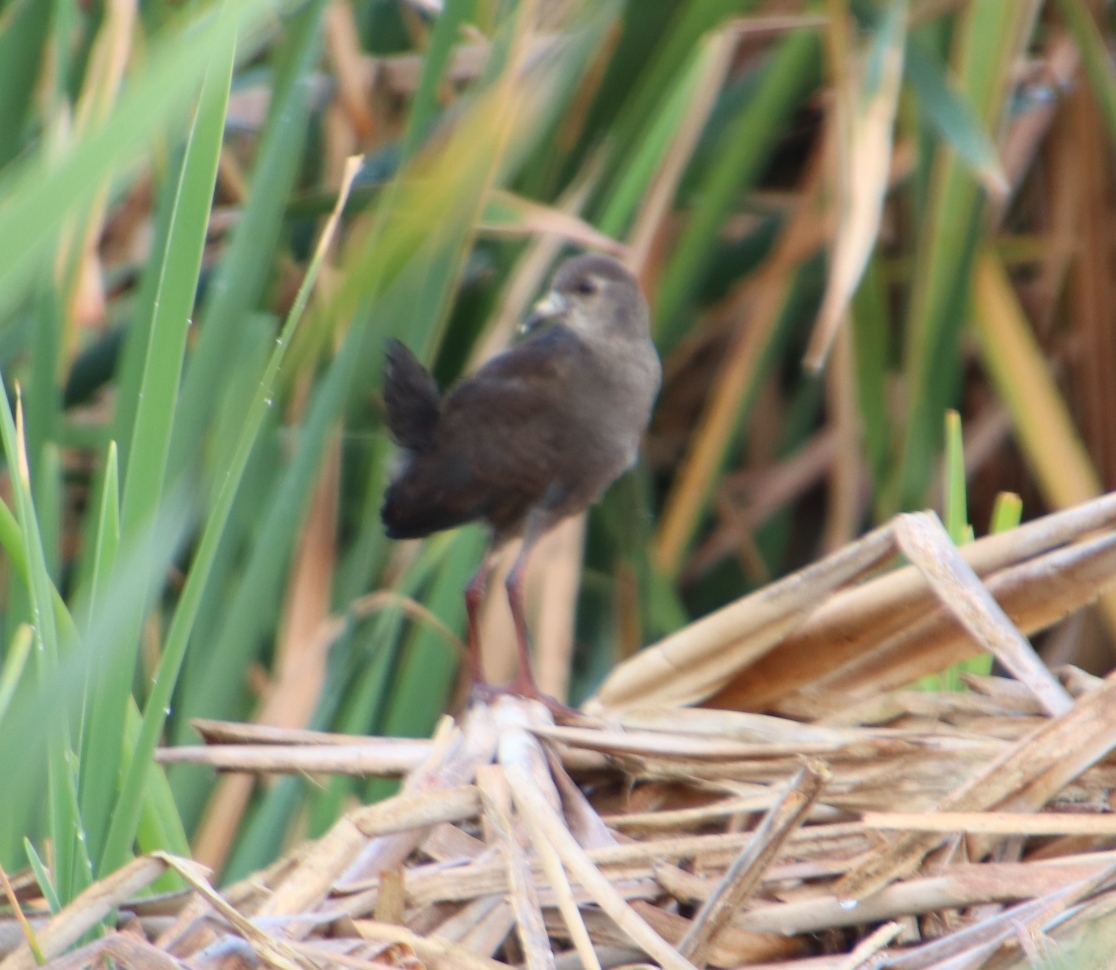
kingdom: Animalia
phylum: Chordata
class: Aves
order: Gruiformes
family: Rallidae
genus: Amaurornis
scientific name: Amaurornis flavirostra
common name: Black crake
